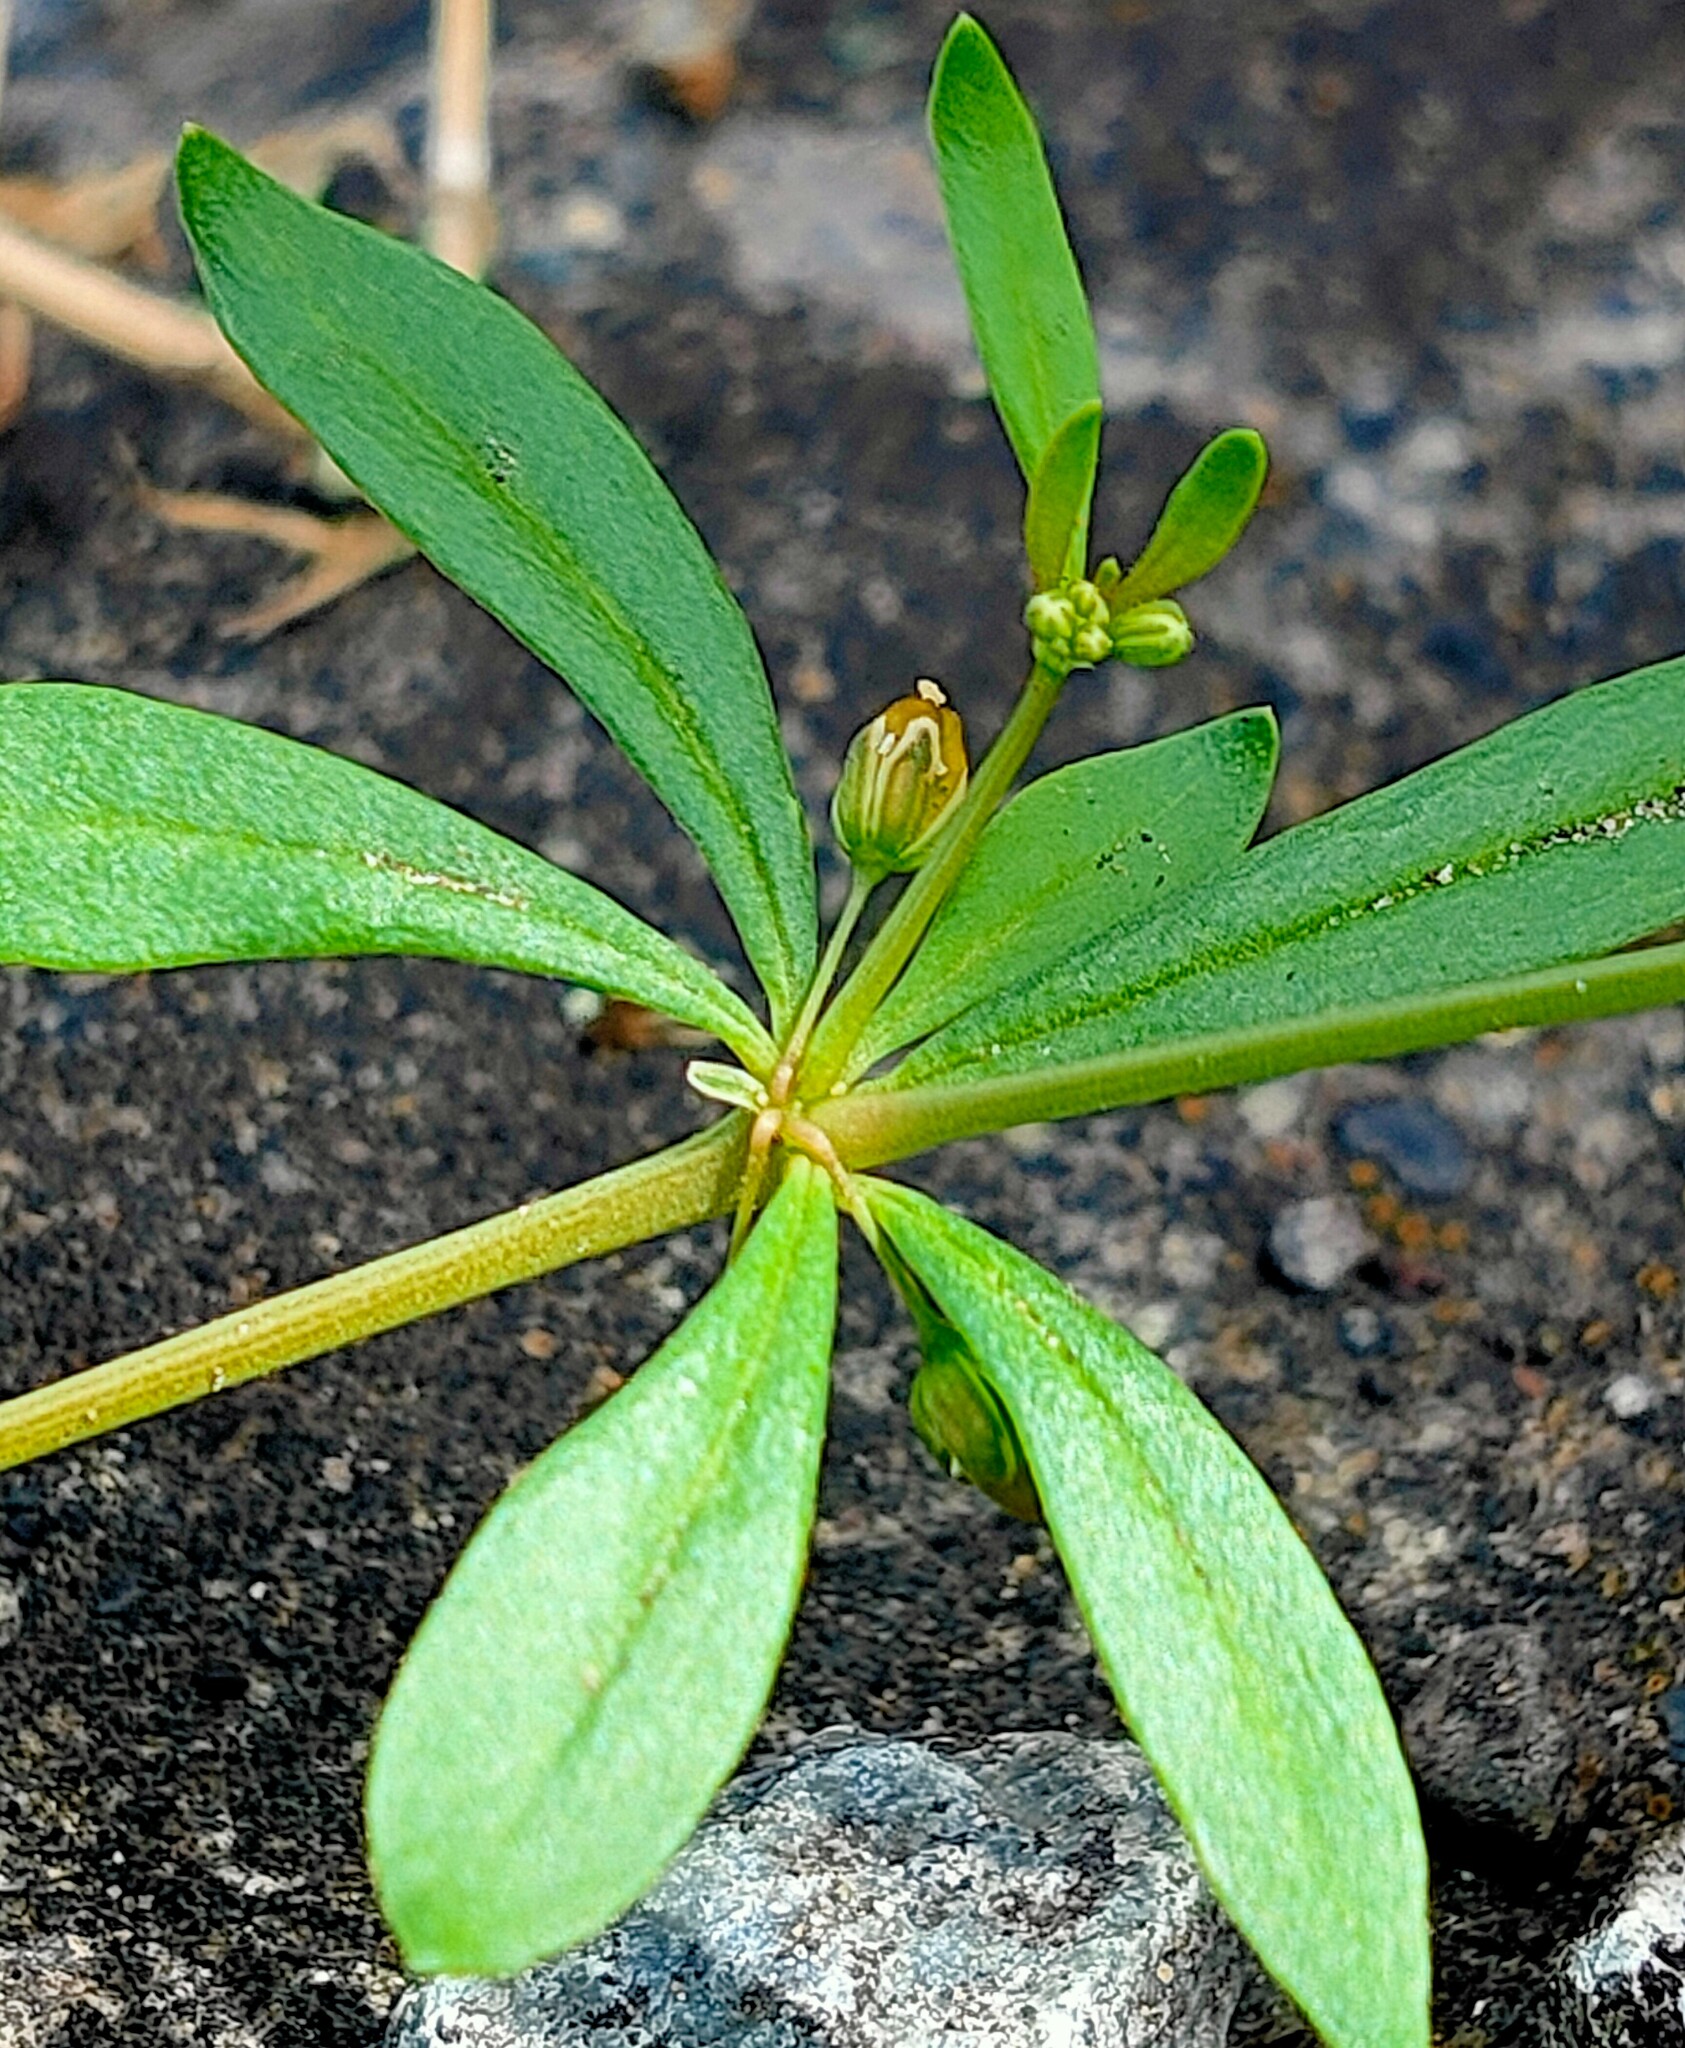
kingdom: Plantae
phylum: Tracheophyta
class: Magnoliopsida
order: Caryophyllales
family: Molluginaceae
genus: Mollugo
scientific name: Mollugo verticillata
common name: Green carpetweed
